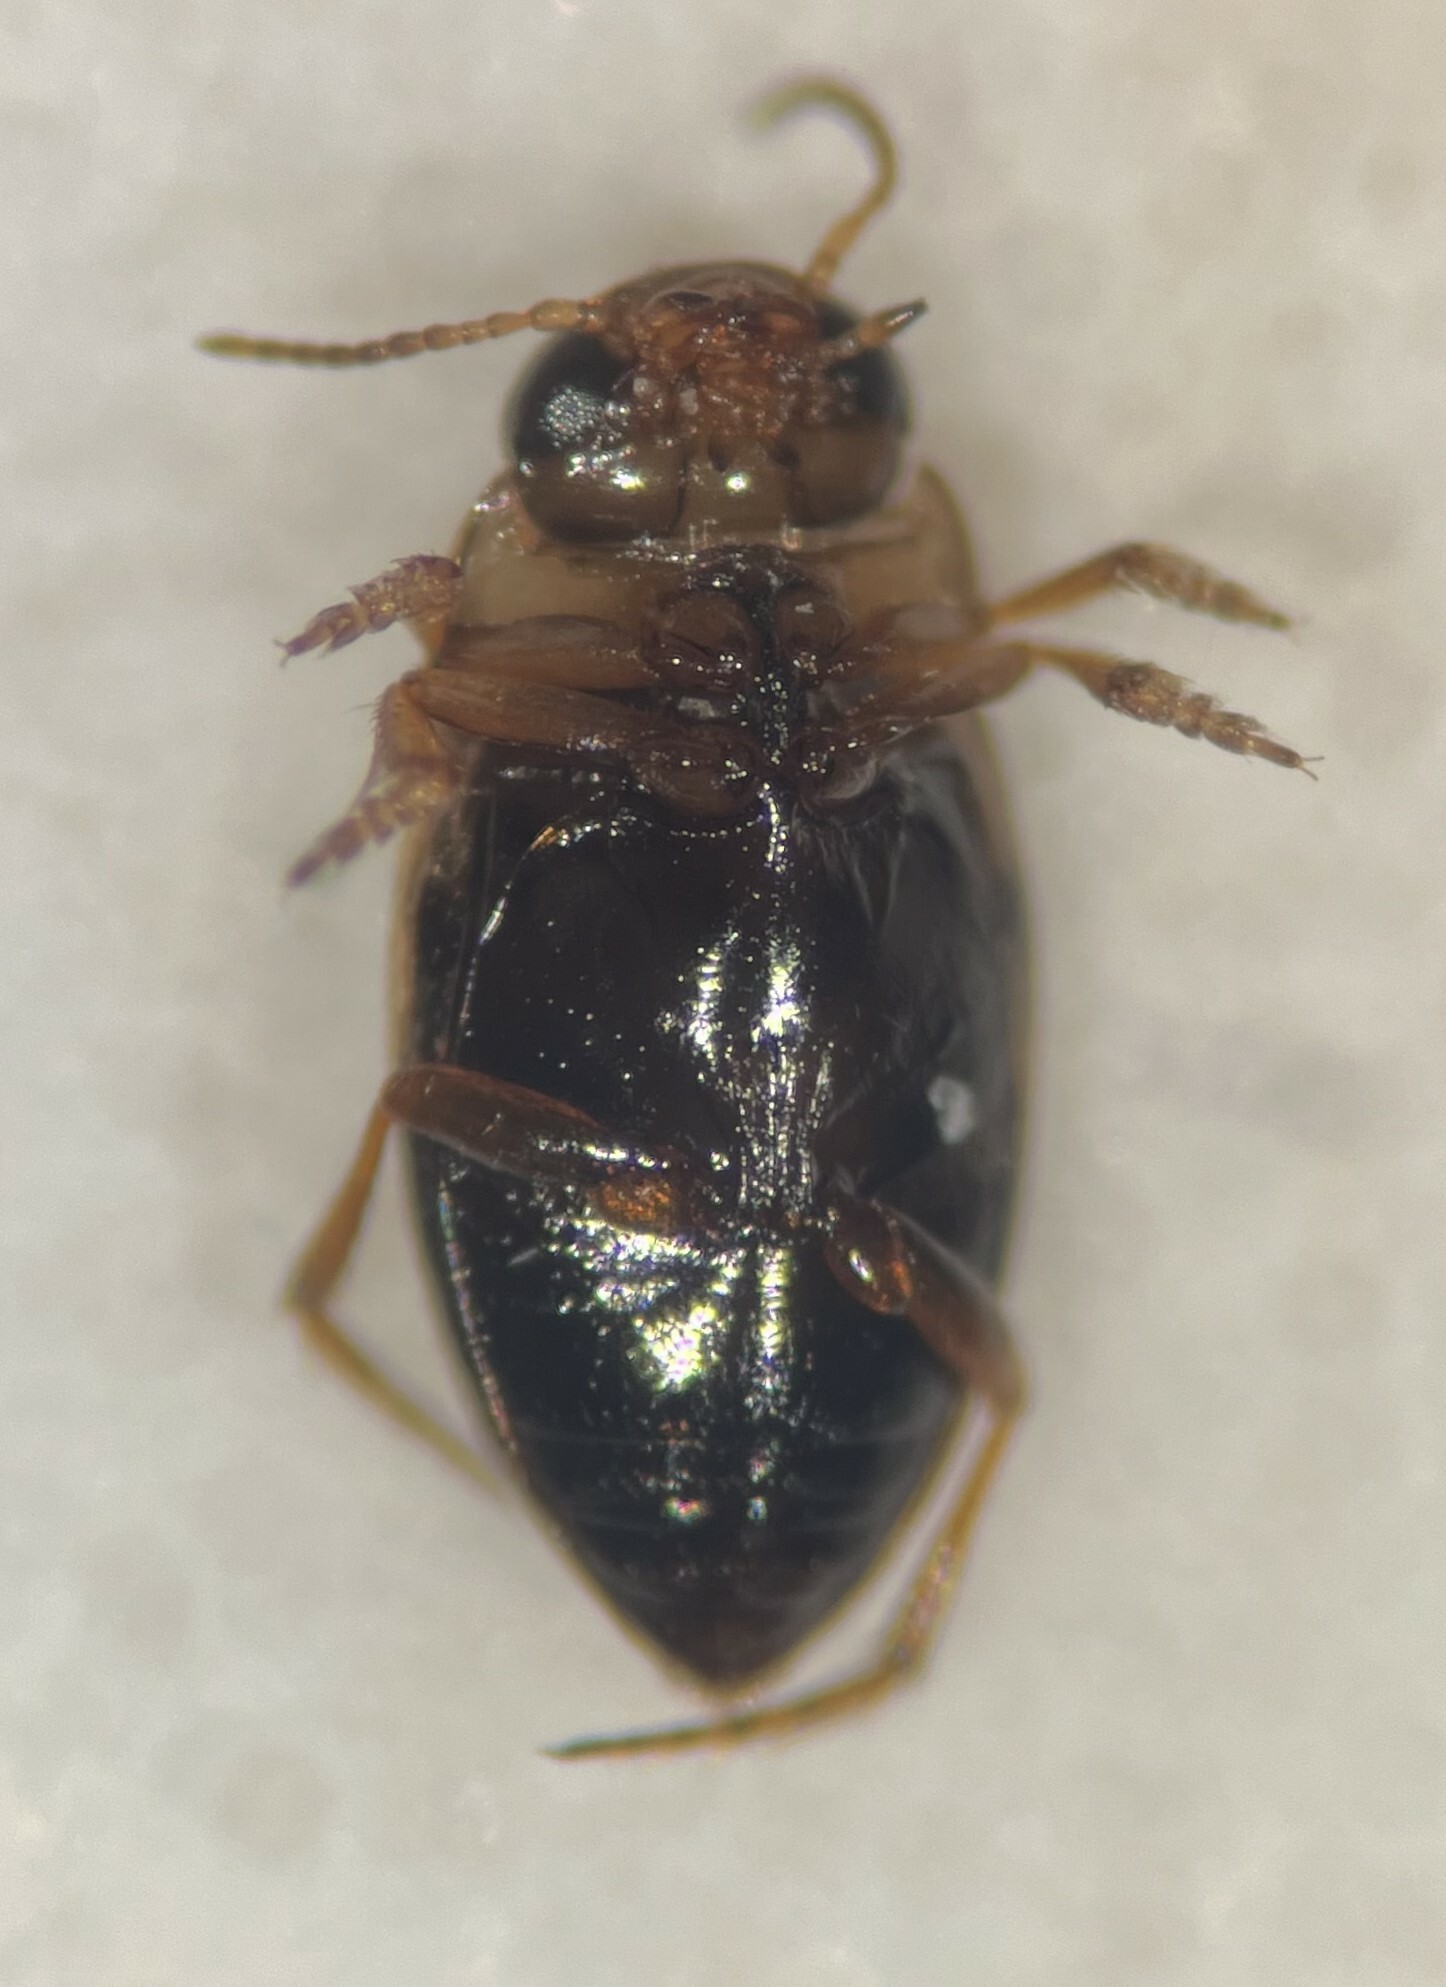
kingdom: Animalia
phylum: Arthropoda
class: Insecta
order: Coleoptera
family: Dytiscidae
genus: Liodessus
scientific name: Liodessus obscurellus
